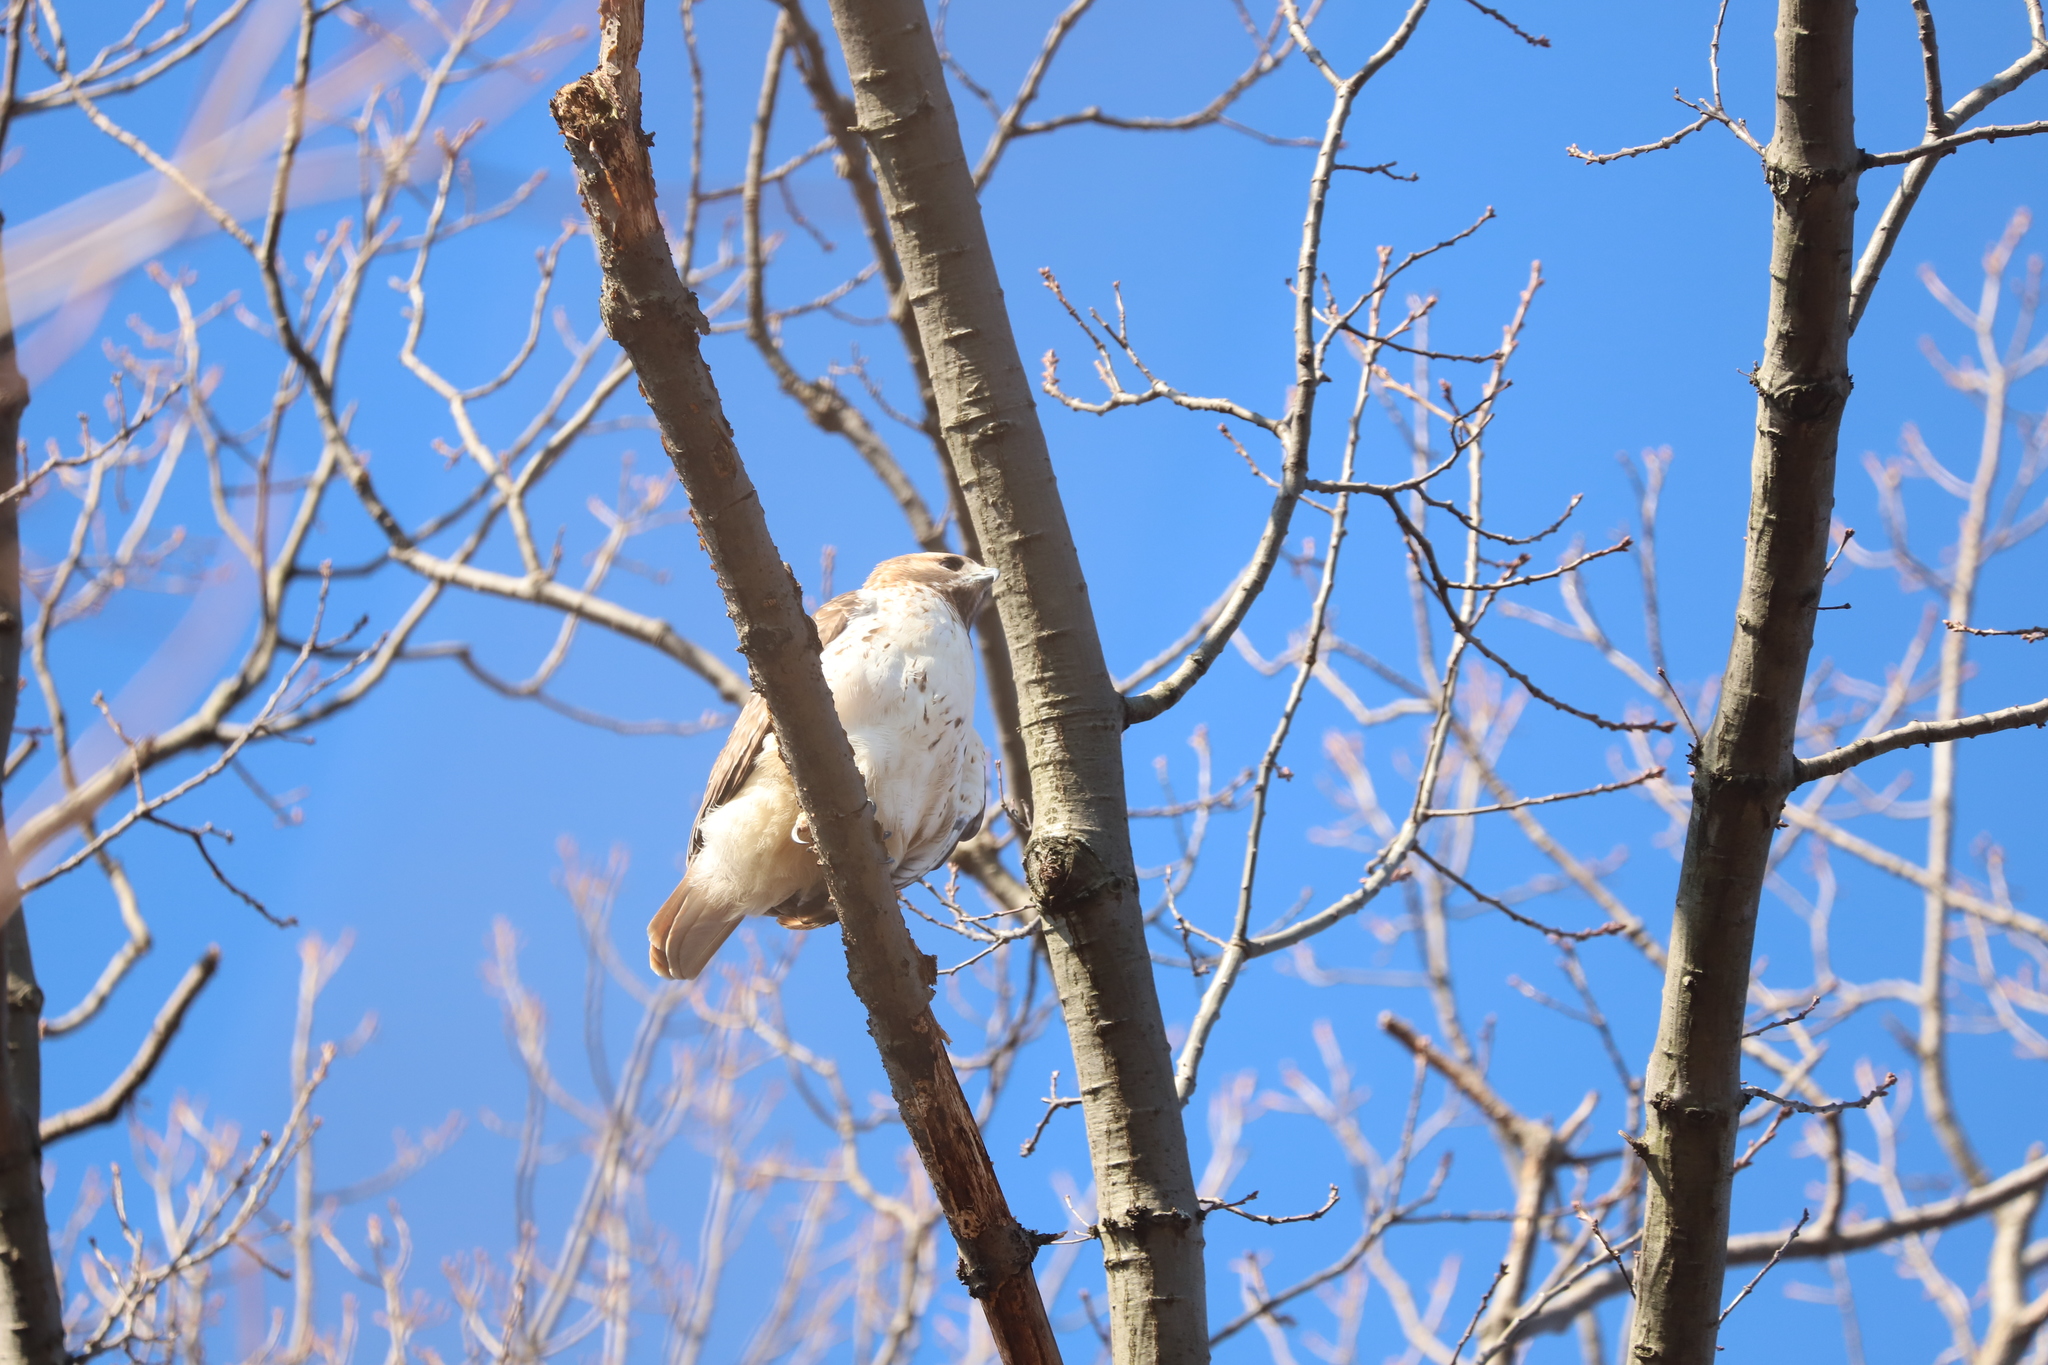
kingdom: Animalia
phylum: Chordata
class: Aves
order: Accipitriformes
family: Accipitridae
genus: Buteo
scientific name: Buteo jamaicensis
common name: Red-tailed hawk
